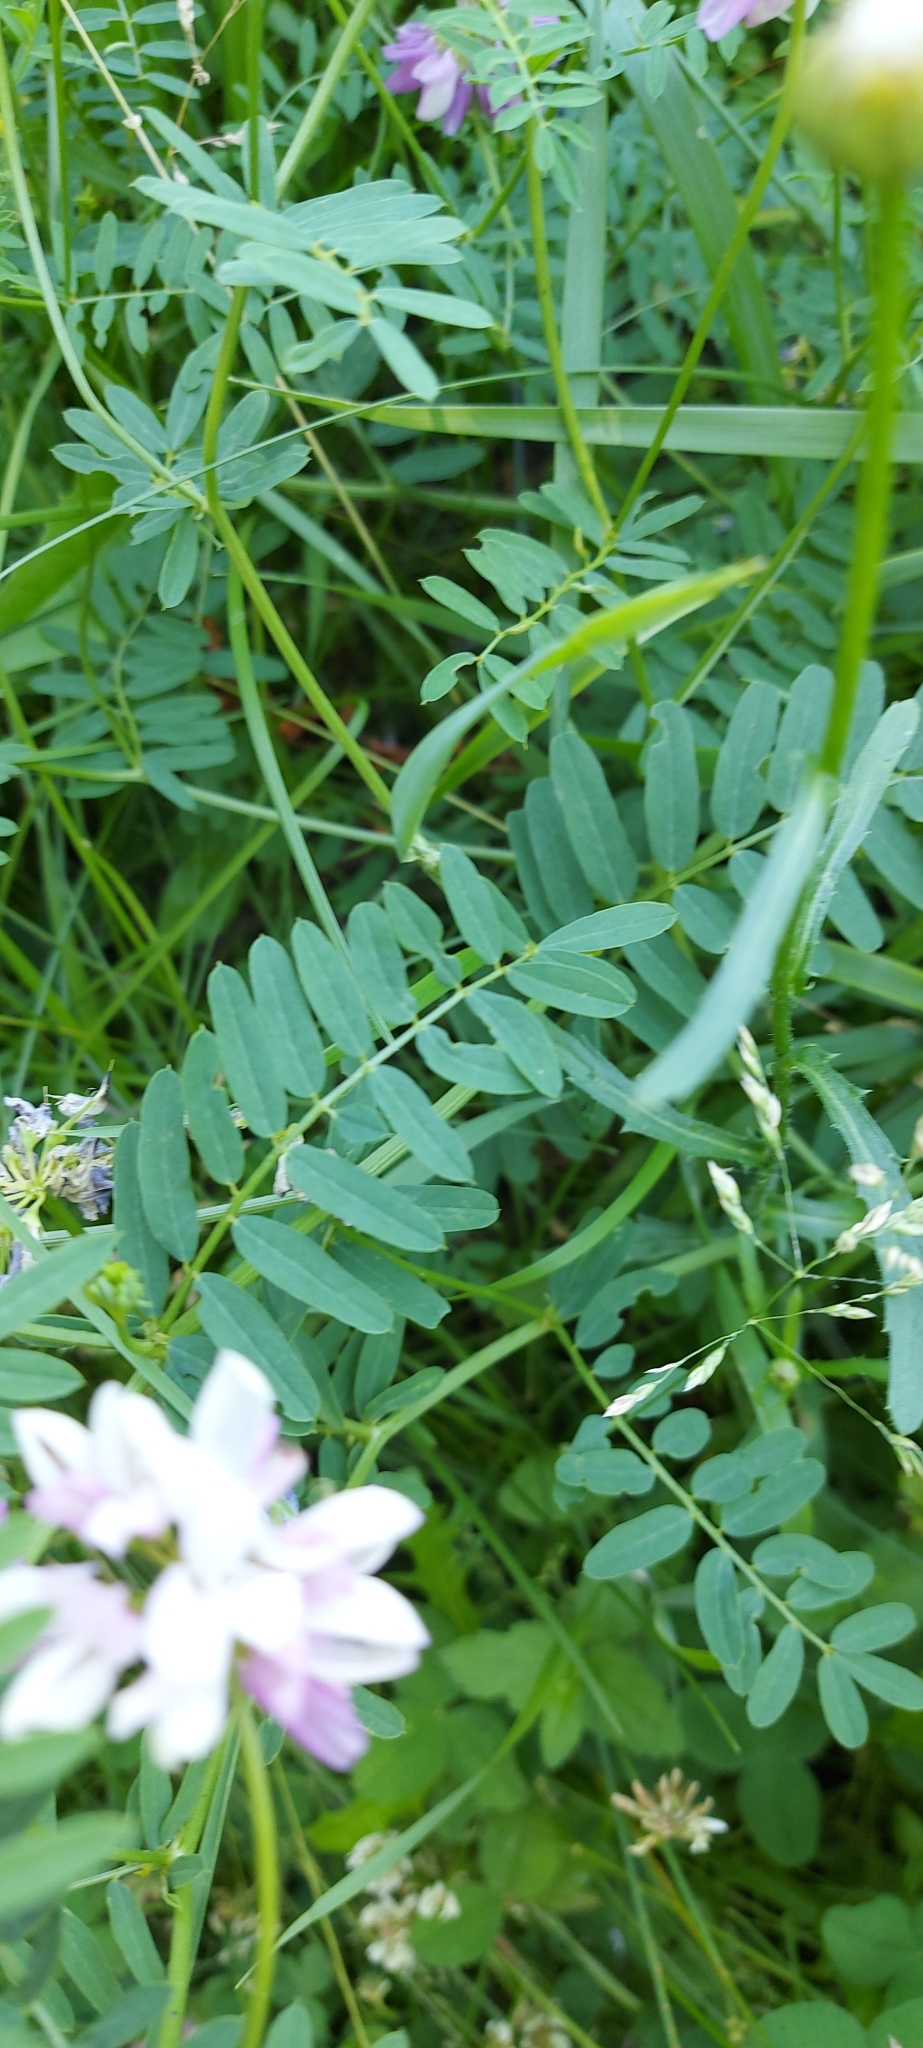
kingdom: Plantae
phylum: Tracheophyta
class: Magnoliopsida
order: Fabales
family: Fabaceae
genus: Coronilla
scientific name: Coronilla varia
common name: Crownvetch
